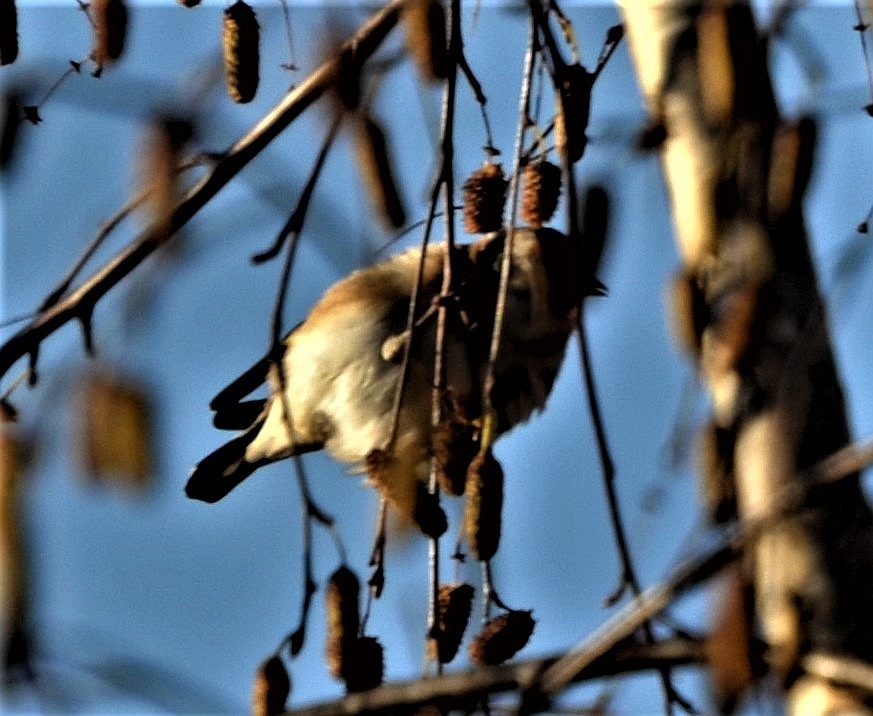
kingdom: Animalia
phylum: Chordata
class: Aves
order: Passeriformes
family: Fringillidae
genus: Carduelis
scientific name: Carduelis carduelis
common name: European goldfinch
